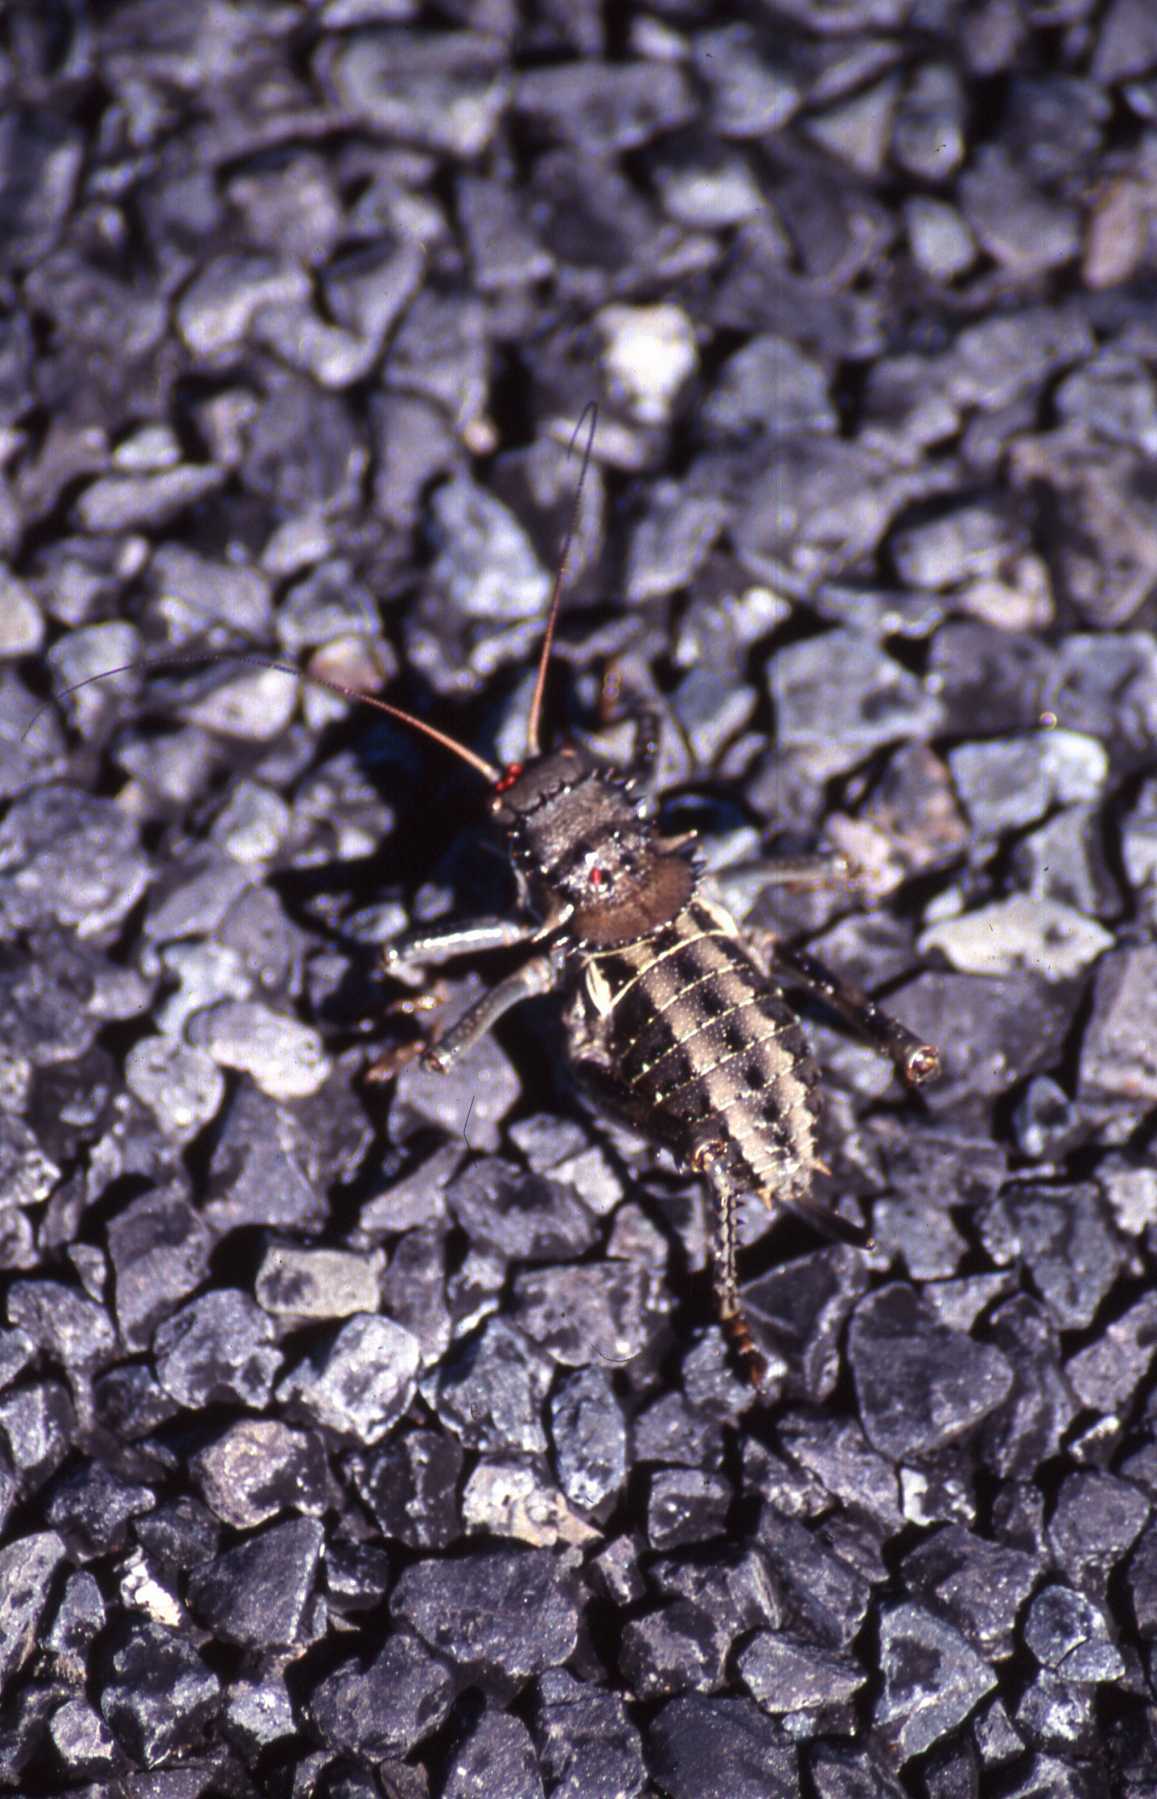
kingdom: Animalia
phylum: Arthropoda
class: Insecta
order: Orthoptera
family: Tettigoniidae
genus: Hetrodes
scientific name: Hetrodes pupus
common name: Koringkriek
